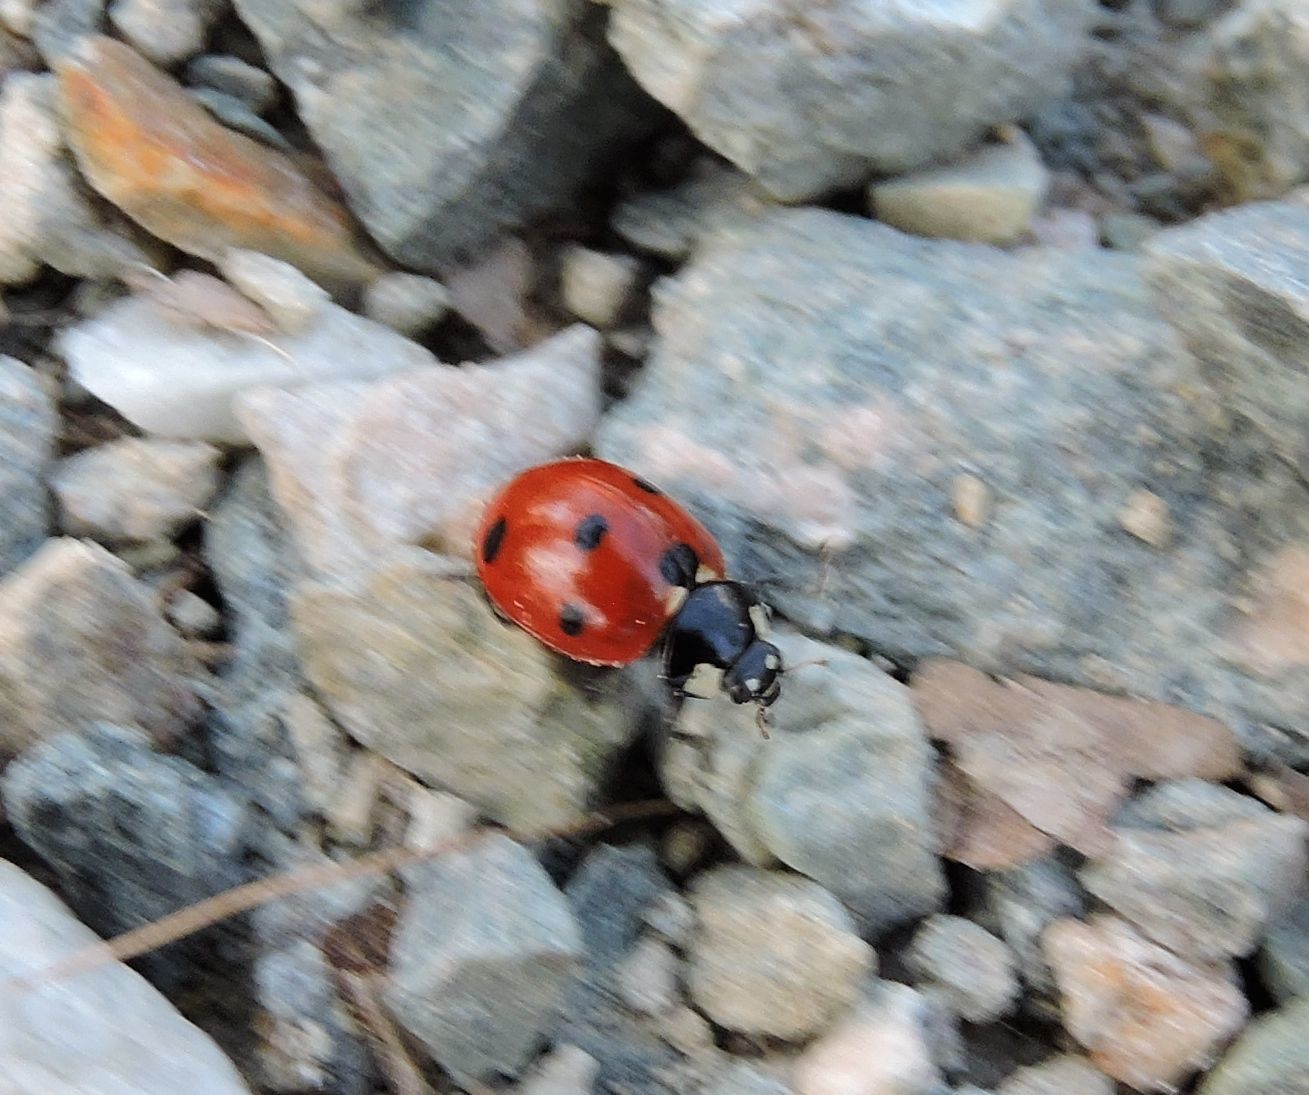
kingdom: Animalia
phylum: Arthropoda
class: Insecta
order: Coleoptera
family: Coccinellidae
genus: Coccinella
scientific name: Coccinella septempunctata
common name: Sevenspotted lady beetle
